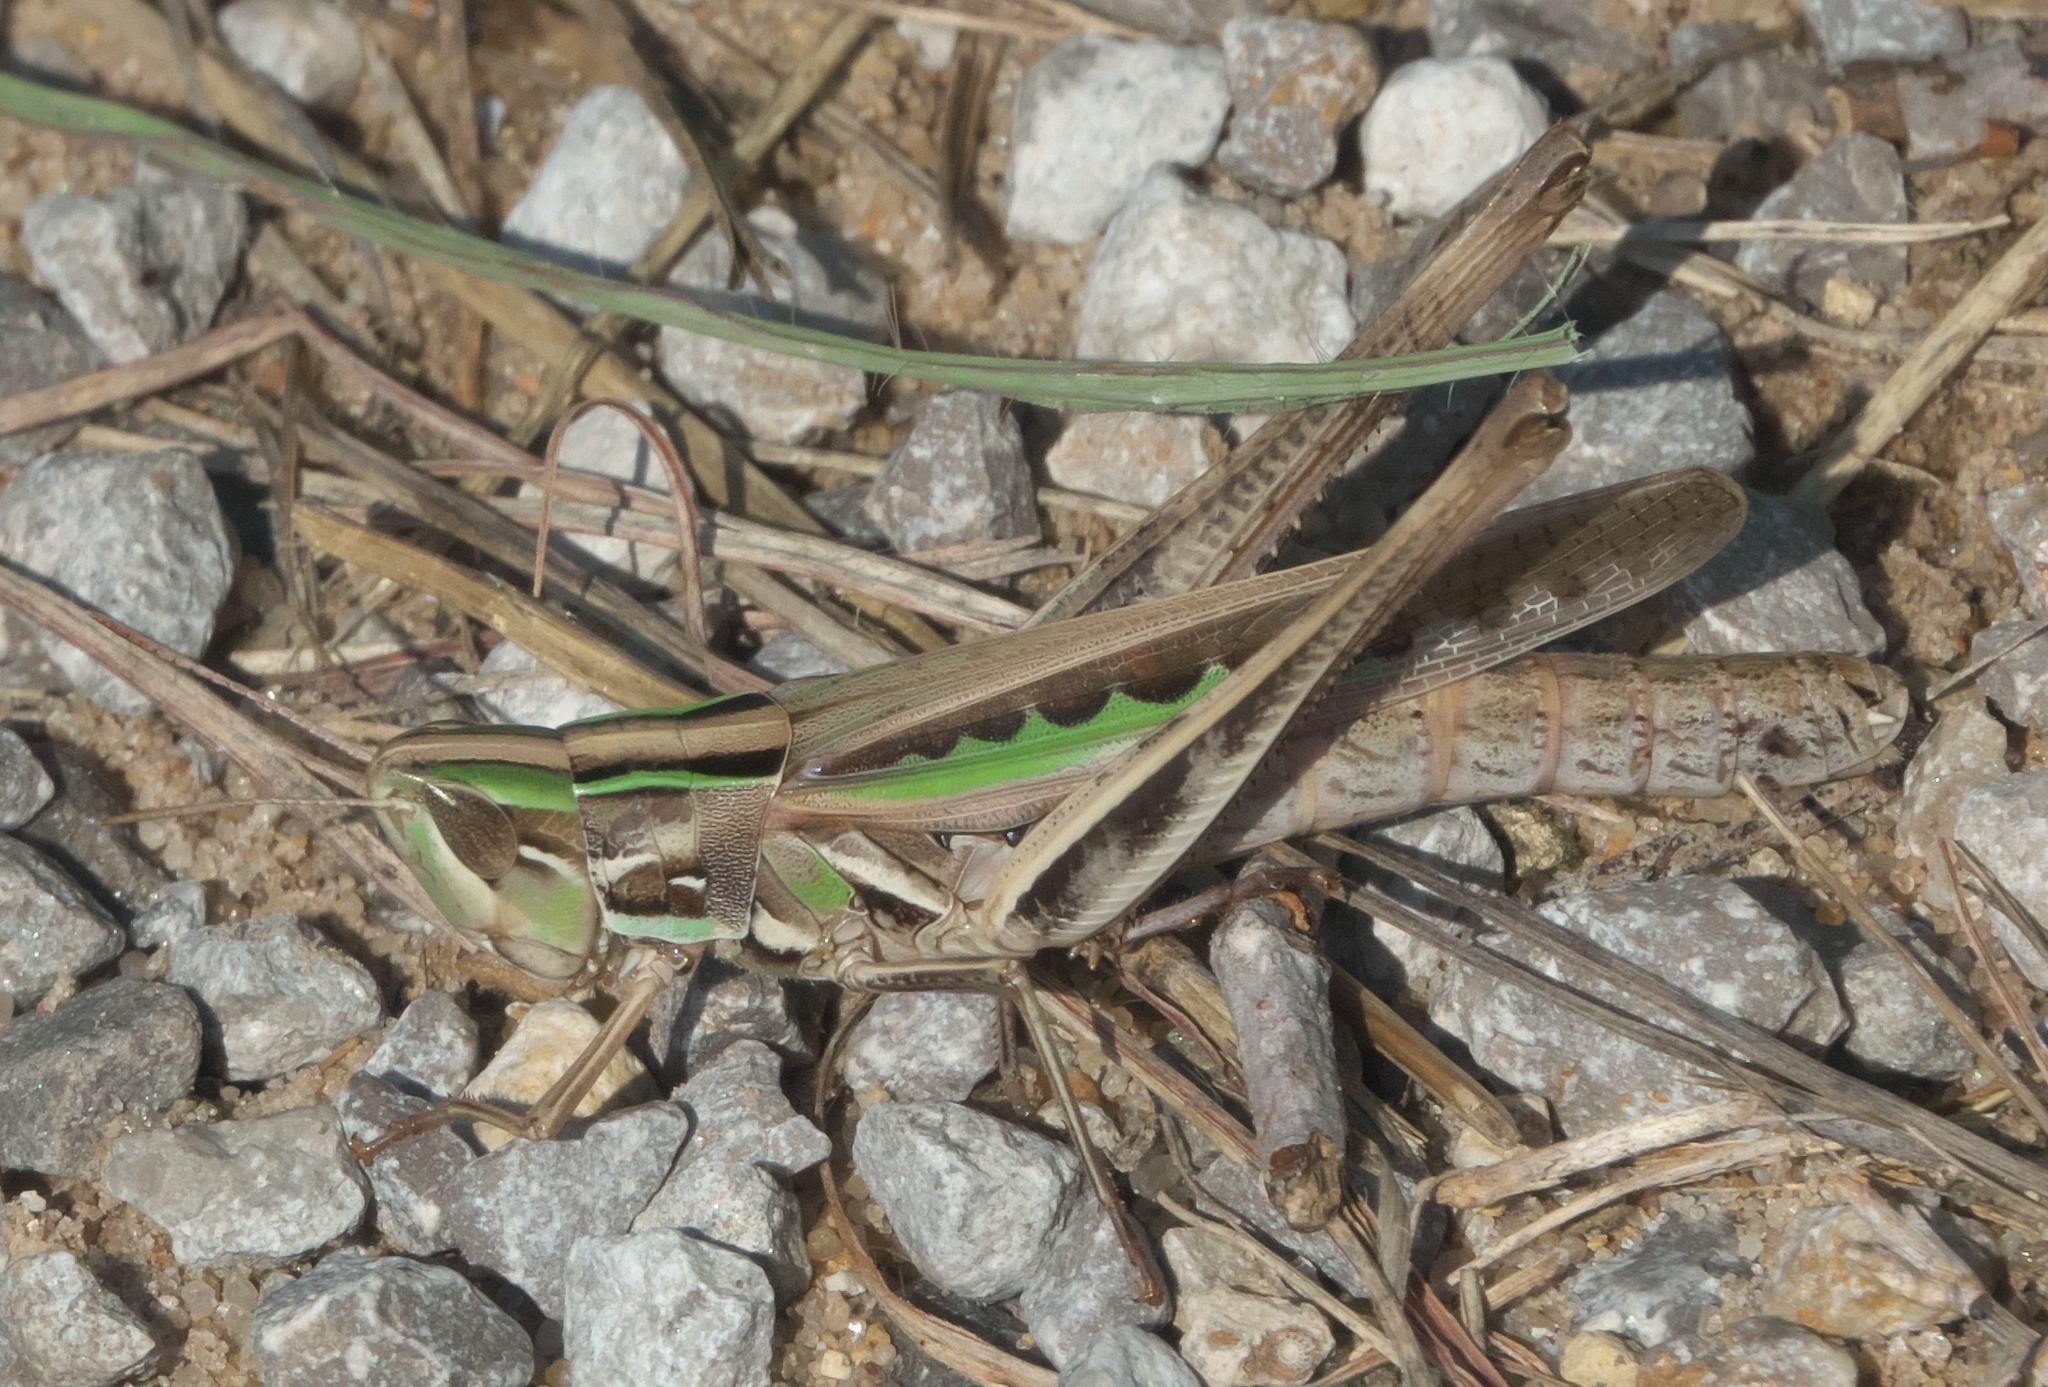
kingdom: Animalia
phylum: Arthropoda
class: Insecta
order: Orthoptera
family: Acrididae
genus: Syrbula
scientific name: Syrbula admirabilis
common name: Handsome grasshopper
